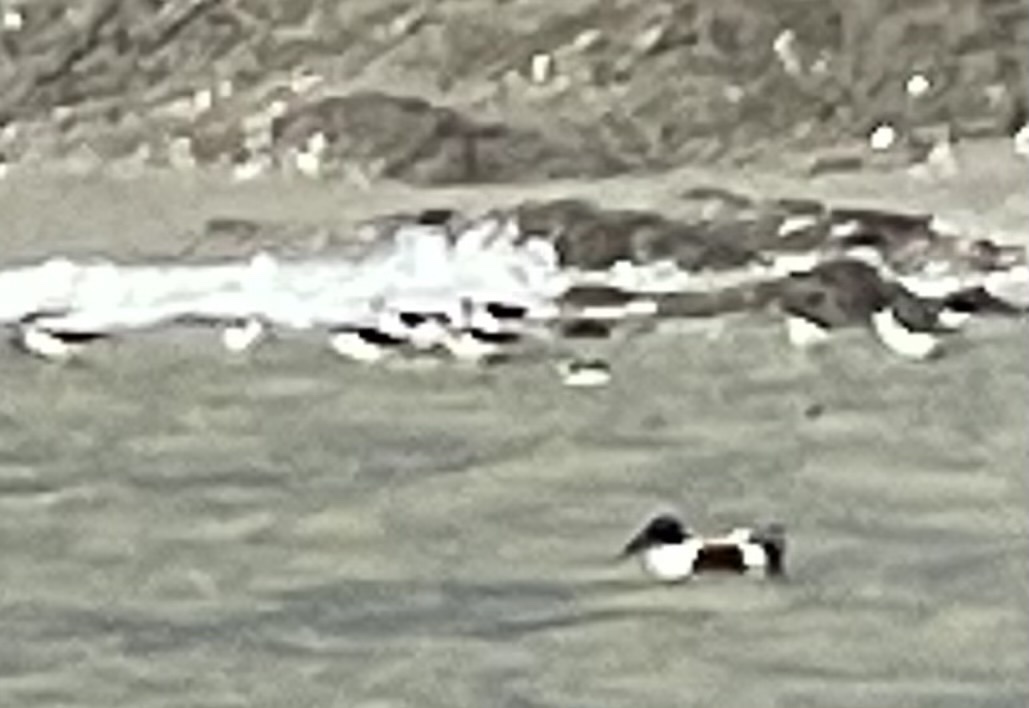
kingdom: Animalia
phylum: Chordata
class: Aves
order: Anseriformes
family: Anatidae
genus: Spatula
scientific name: Spatula clypeata
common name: Northern shoveler
